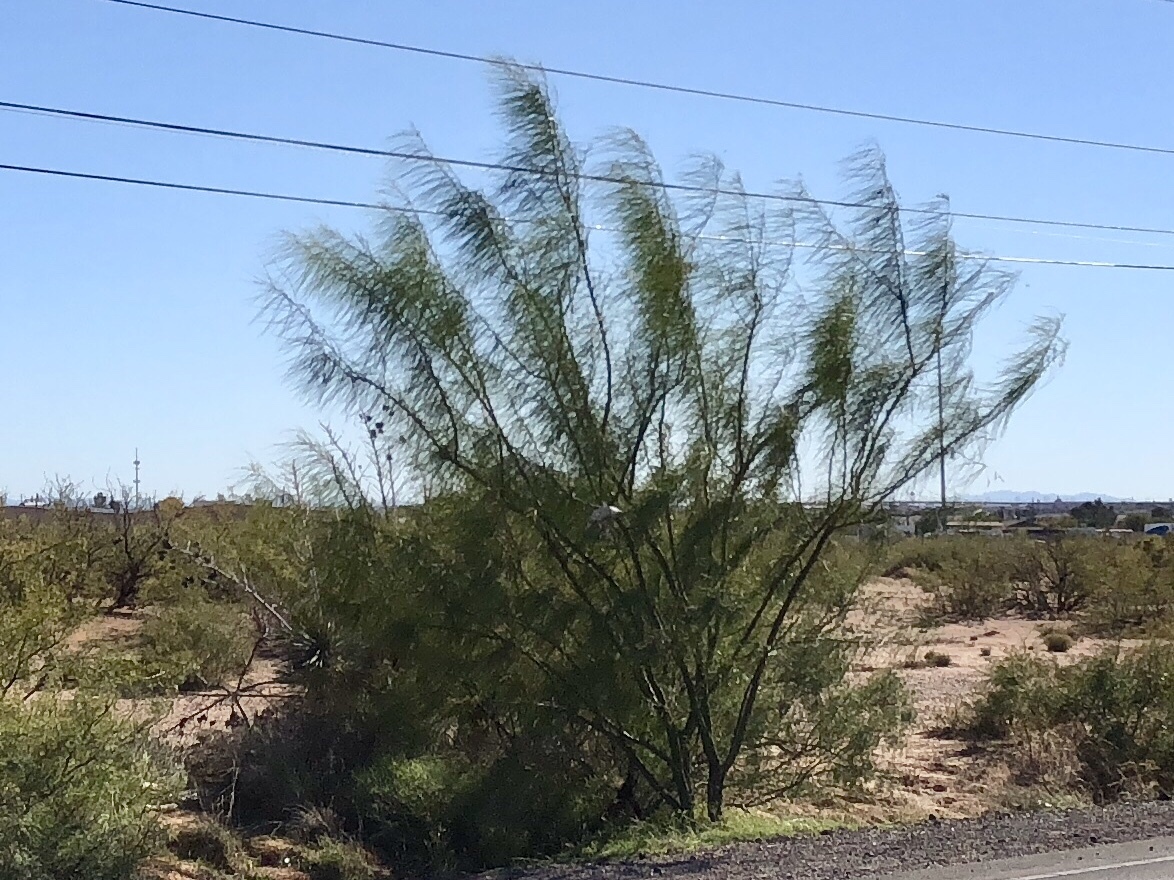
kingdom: Plantae
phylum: Tracheophyta
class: Magnoliopsida
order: Fabales
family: Fabaceae
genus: Parkinsonia
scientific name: Parkinsonia aculeata
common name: Jerusalem thorn
